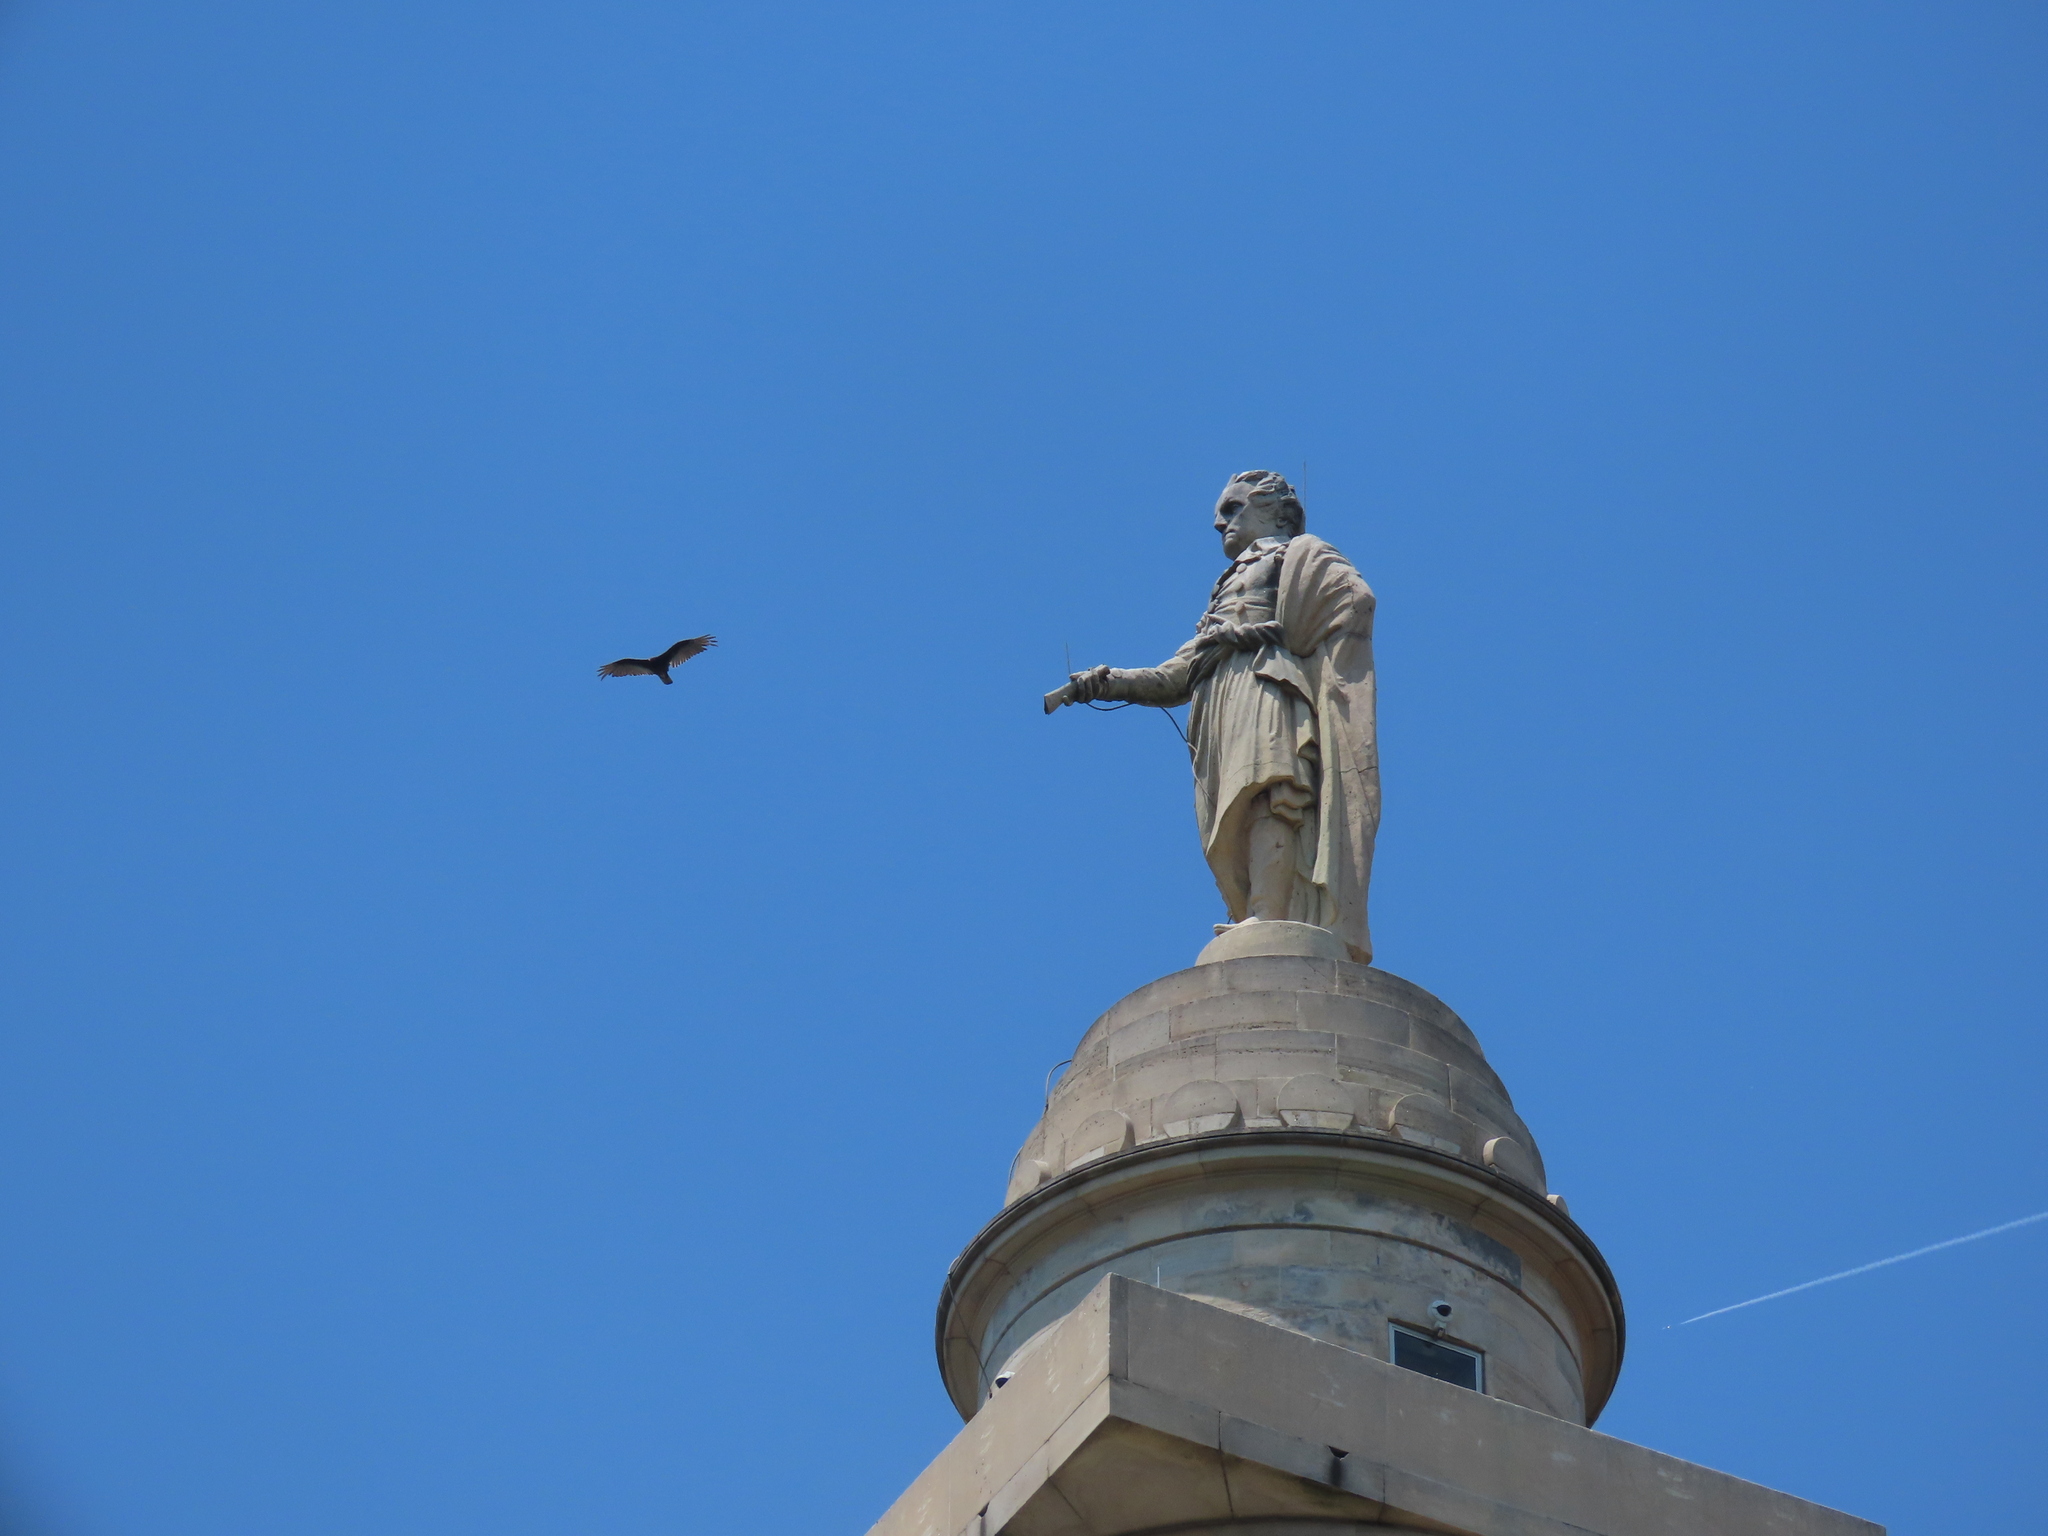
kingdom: Animalia
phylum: Chordata
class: Aves
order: Accipitriformes
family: Cathartidae
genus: Cathartes
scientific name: Cathartes aura
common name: Turkey vulture
